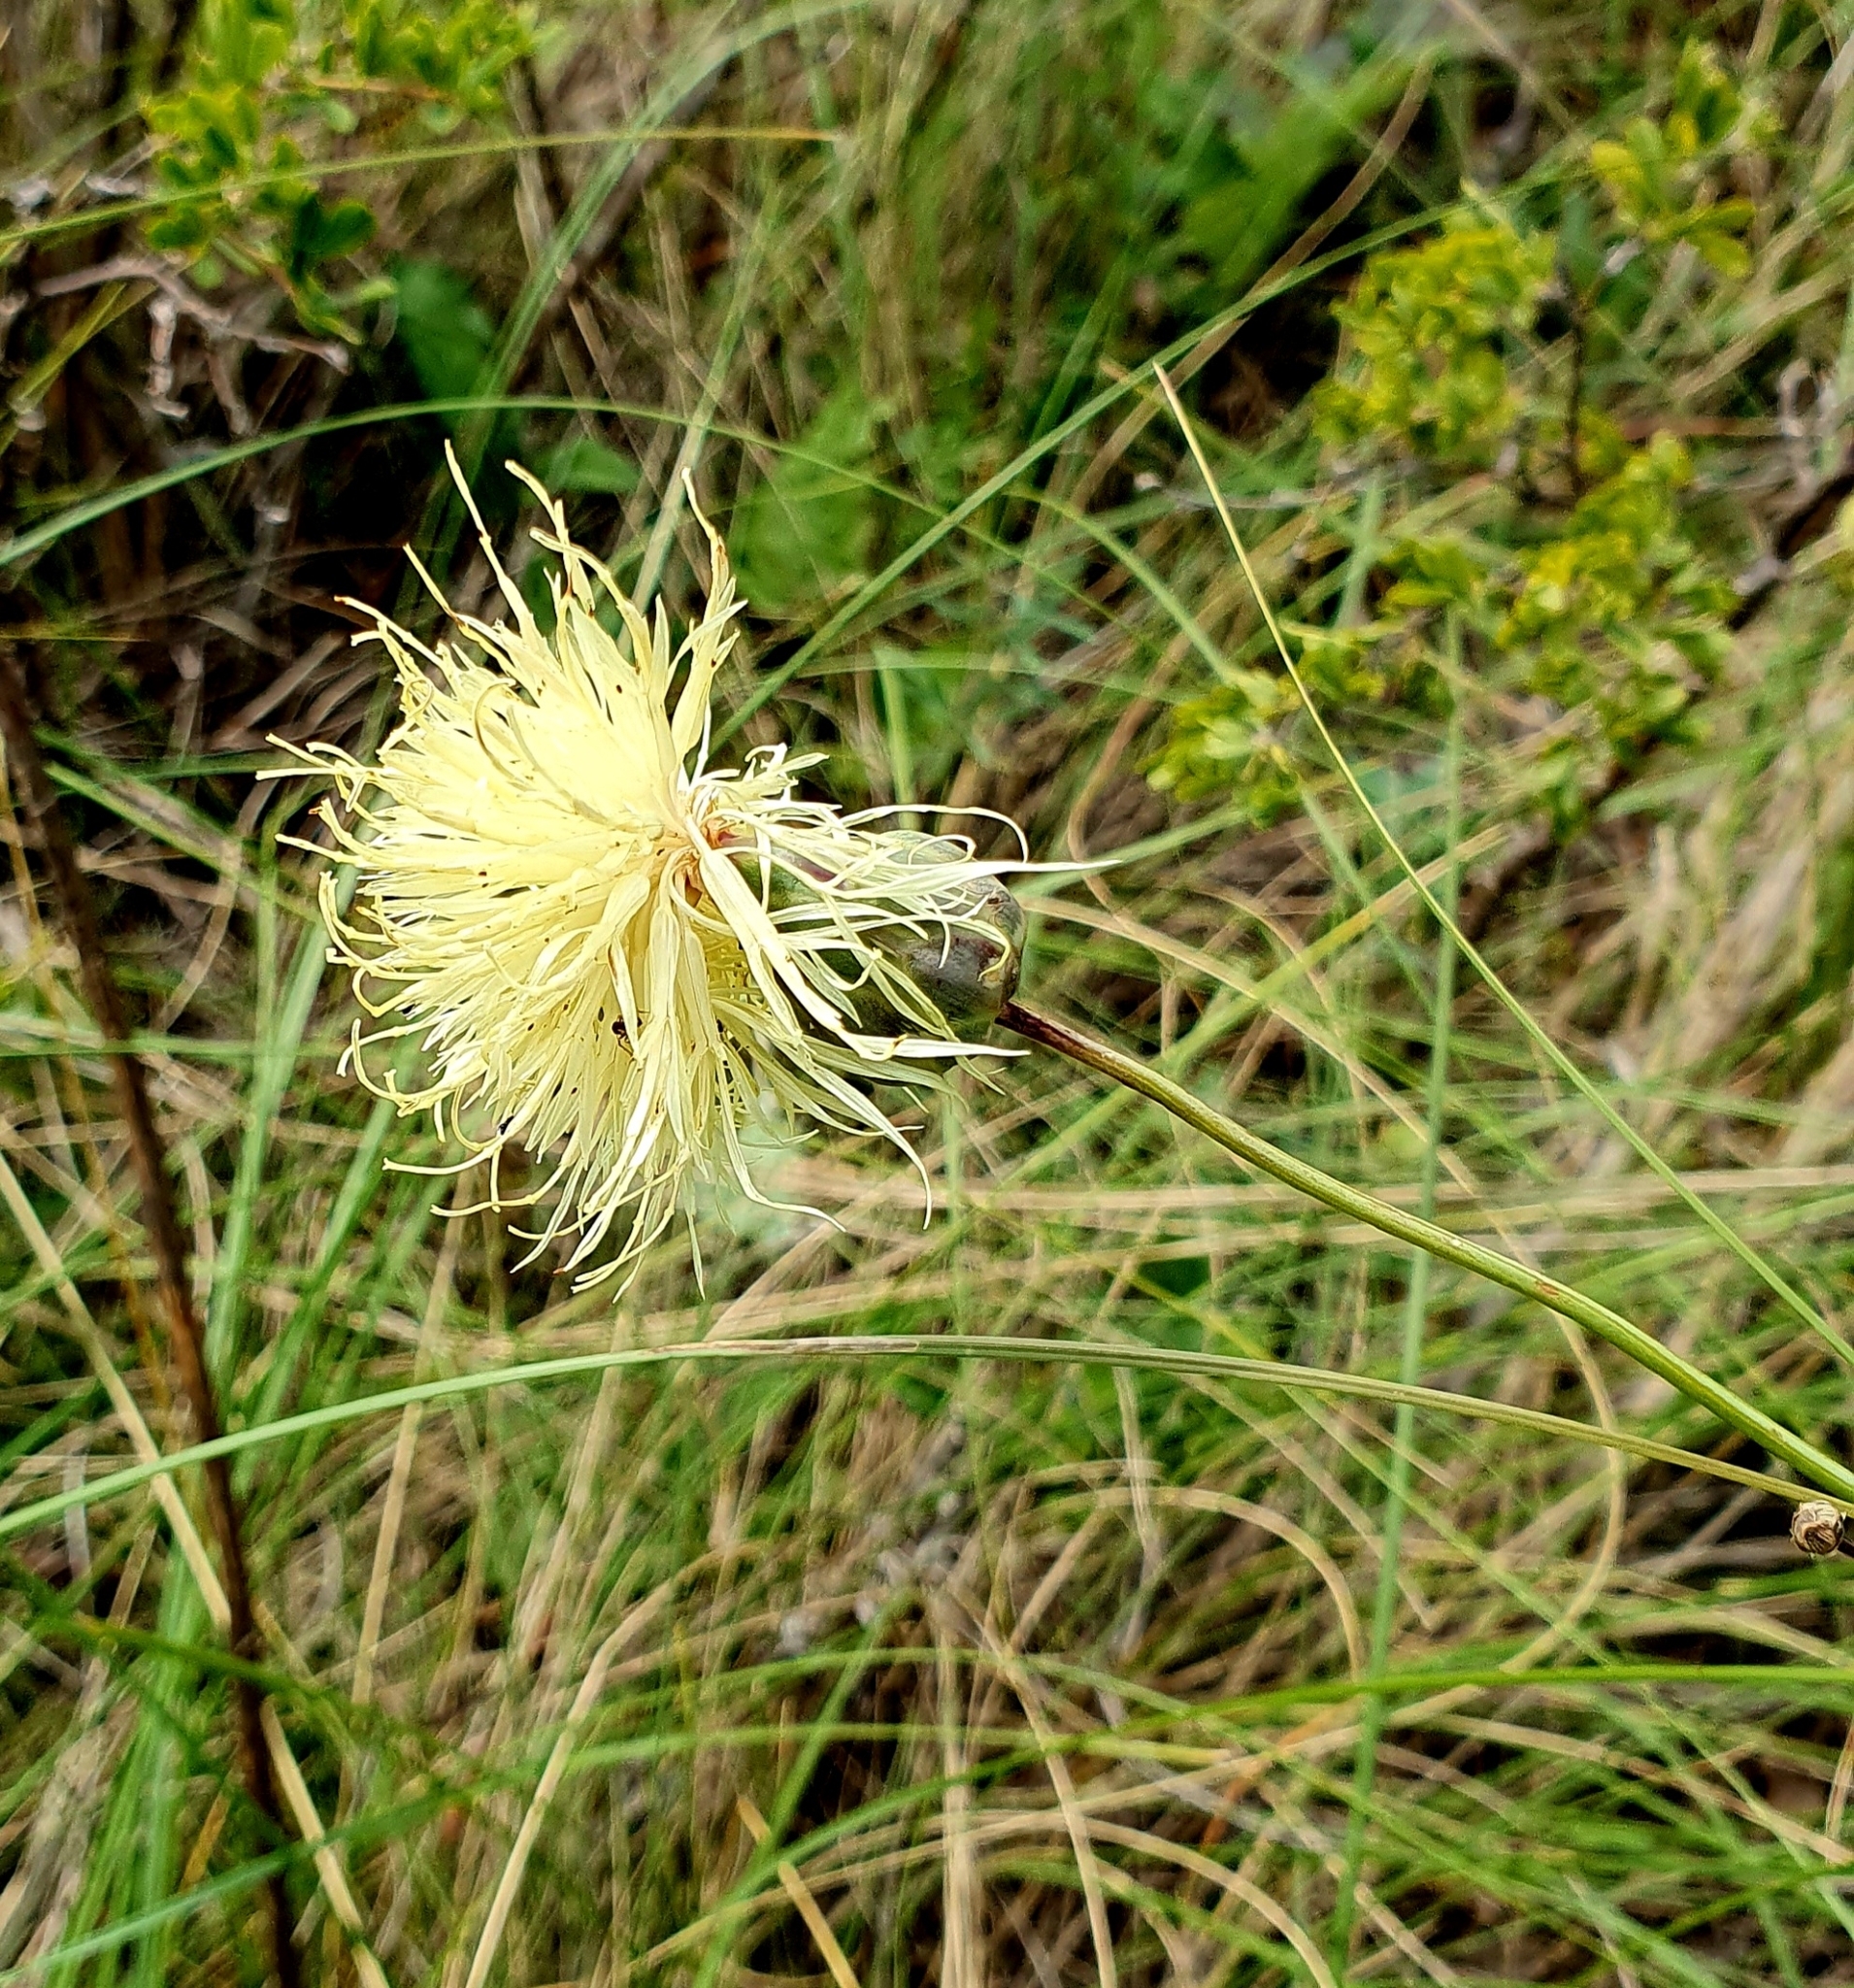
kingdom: Plantae
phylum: Tracheophyta
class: Magnoliopsida
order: Asterales
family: Asteraceae
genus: Rhaponticoides
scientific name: Rhaponticoides ruthenica
